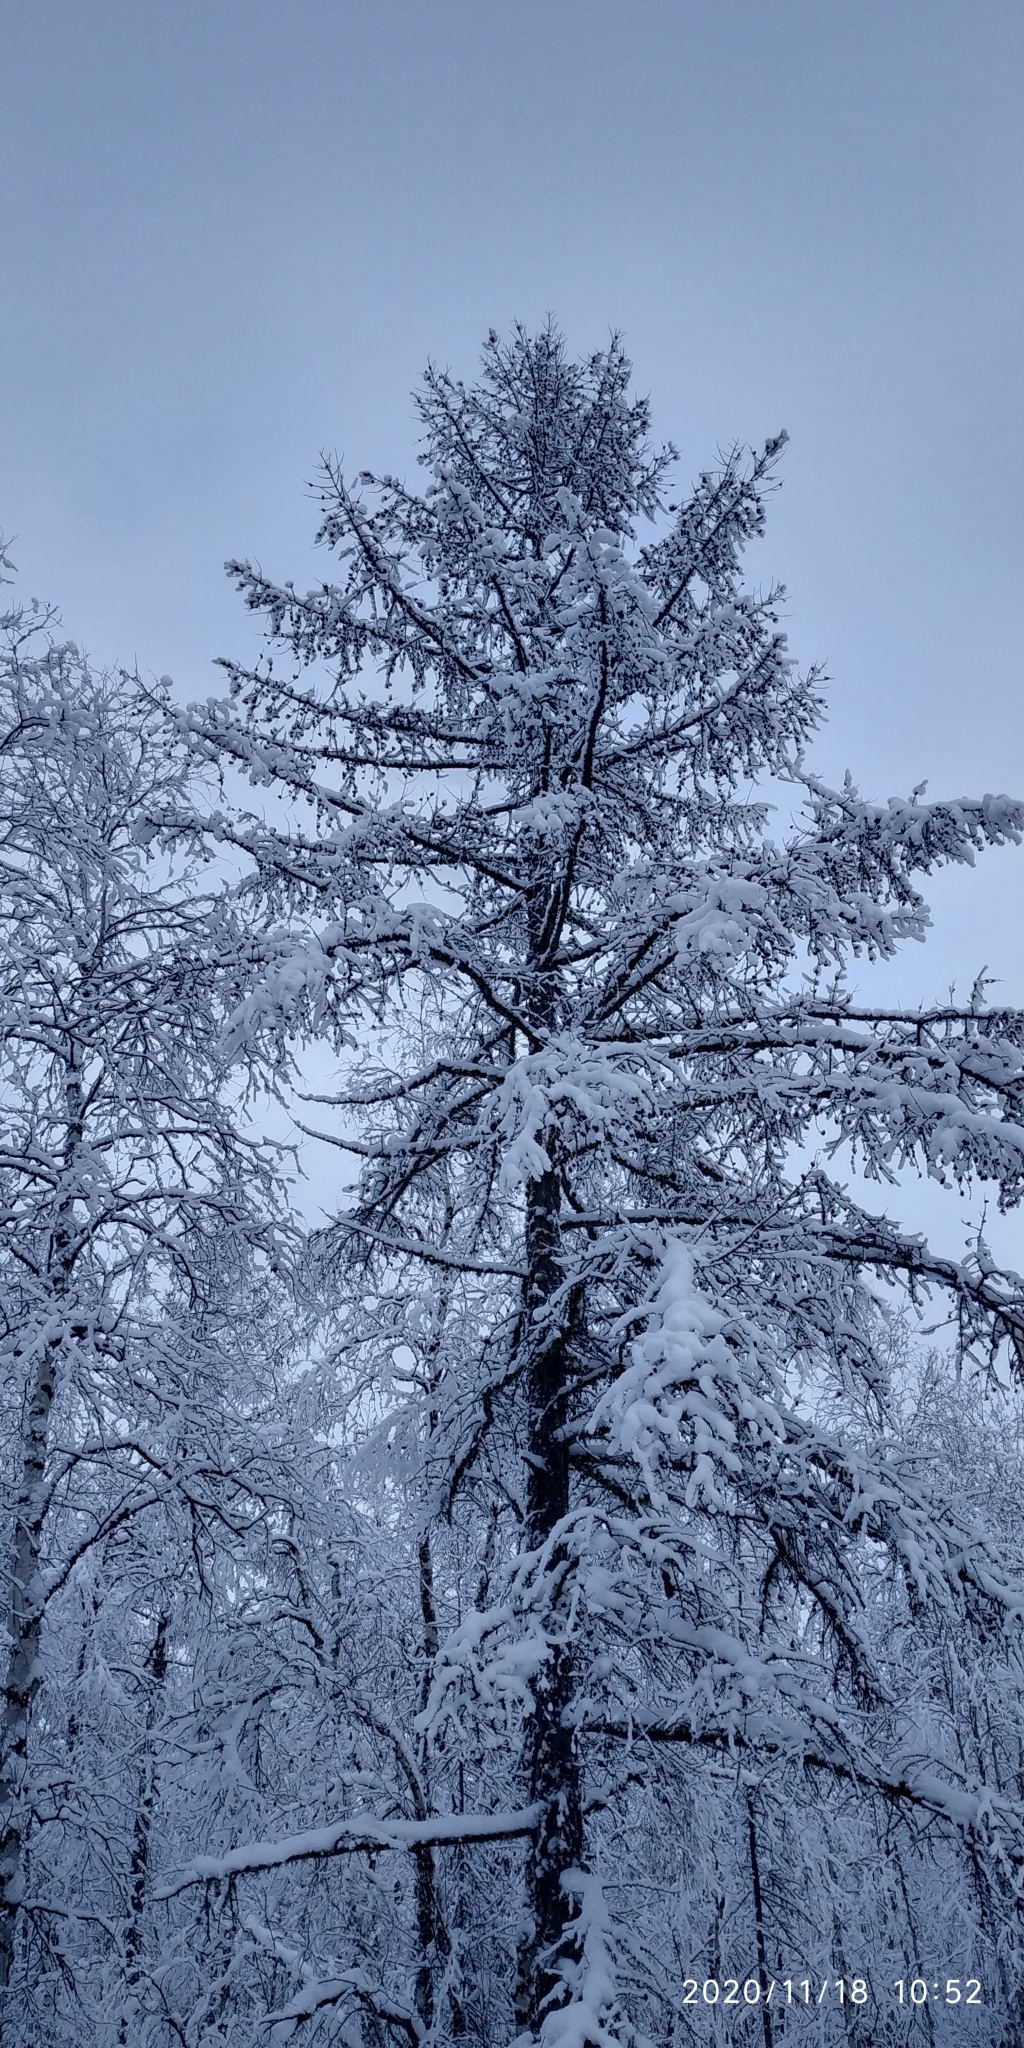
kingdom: Plantae
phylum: Tracheophyta
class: Pinopsida
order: Pinales
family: Pinaceae
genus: Larix
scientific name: Larix sibirica
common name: Siberian larch
